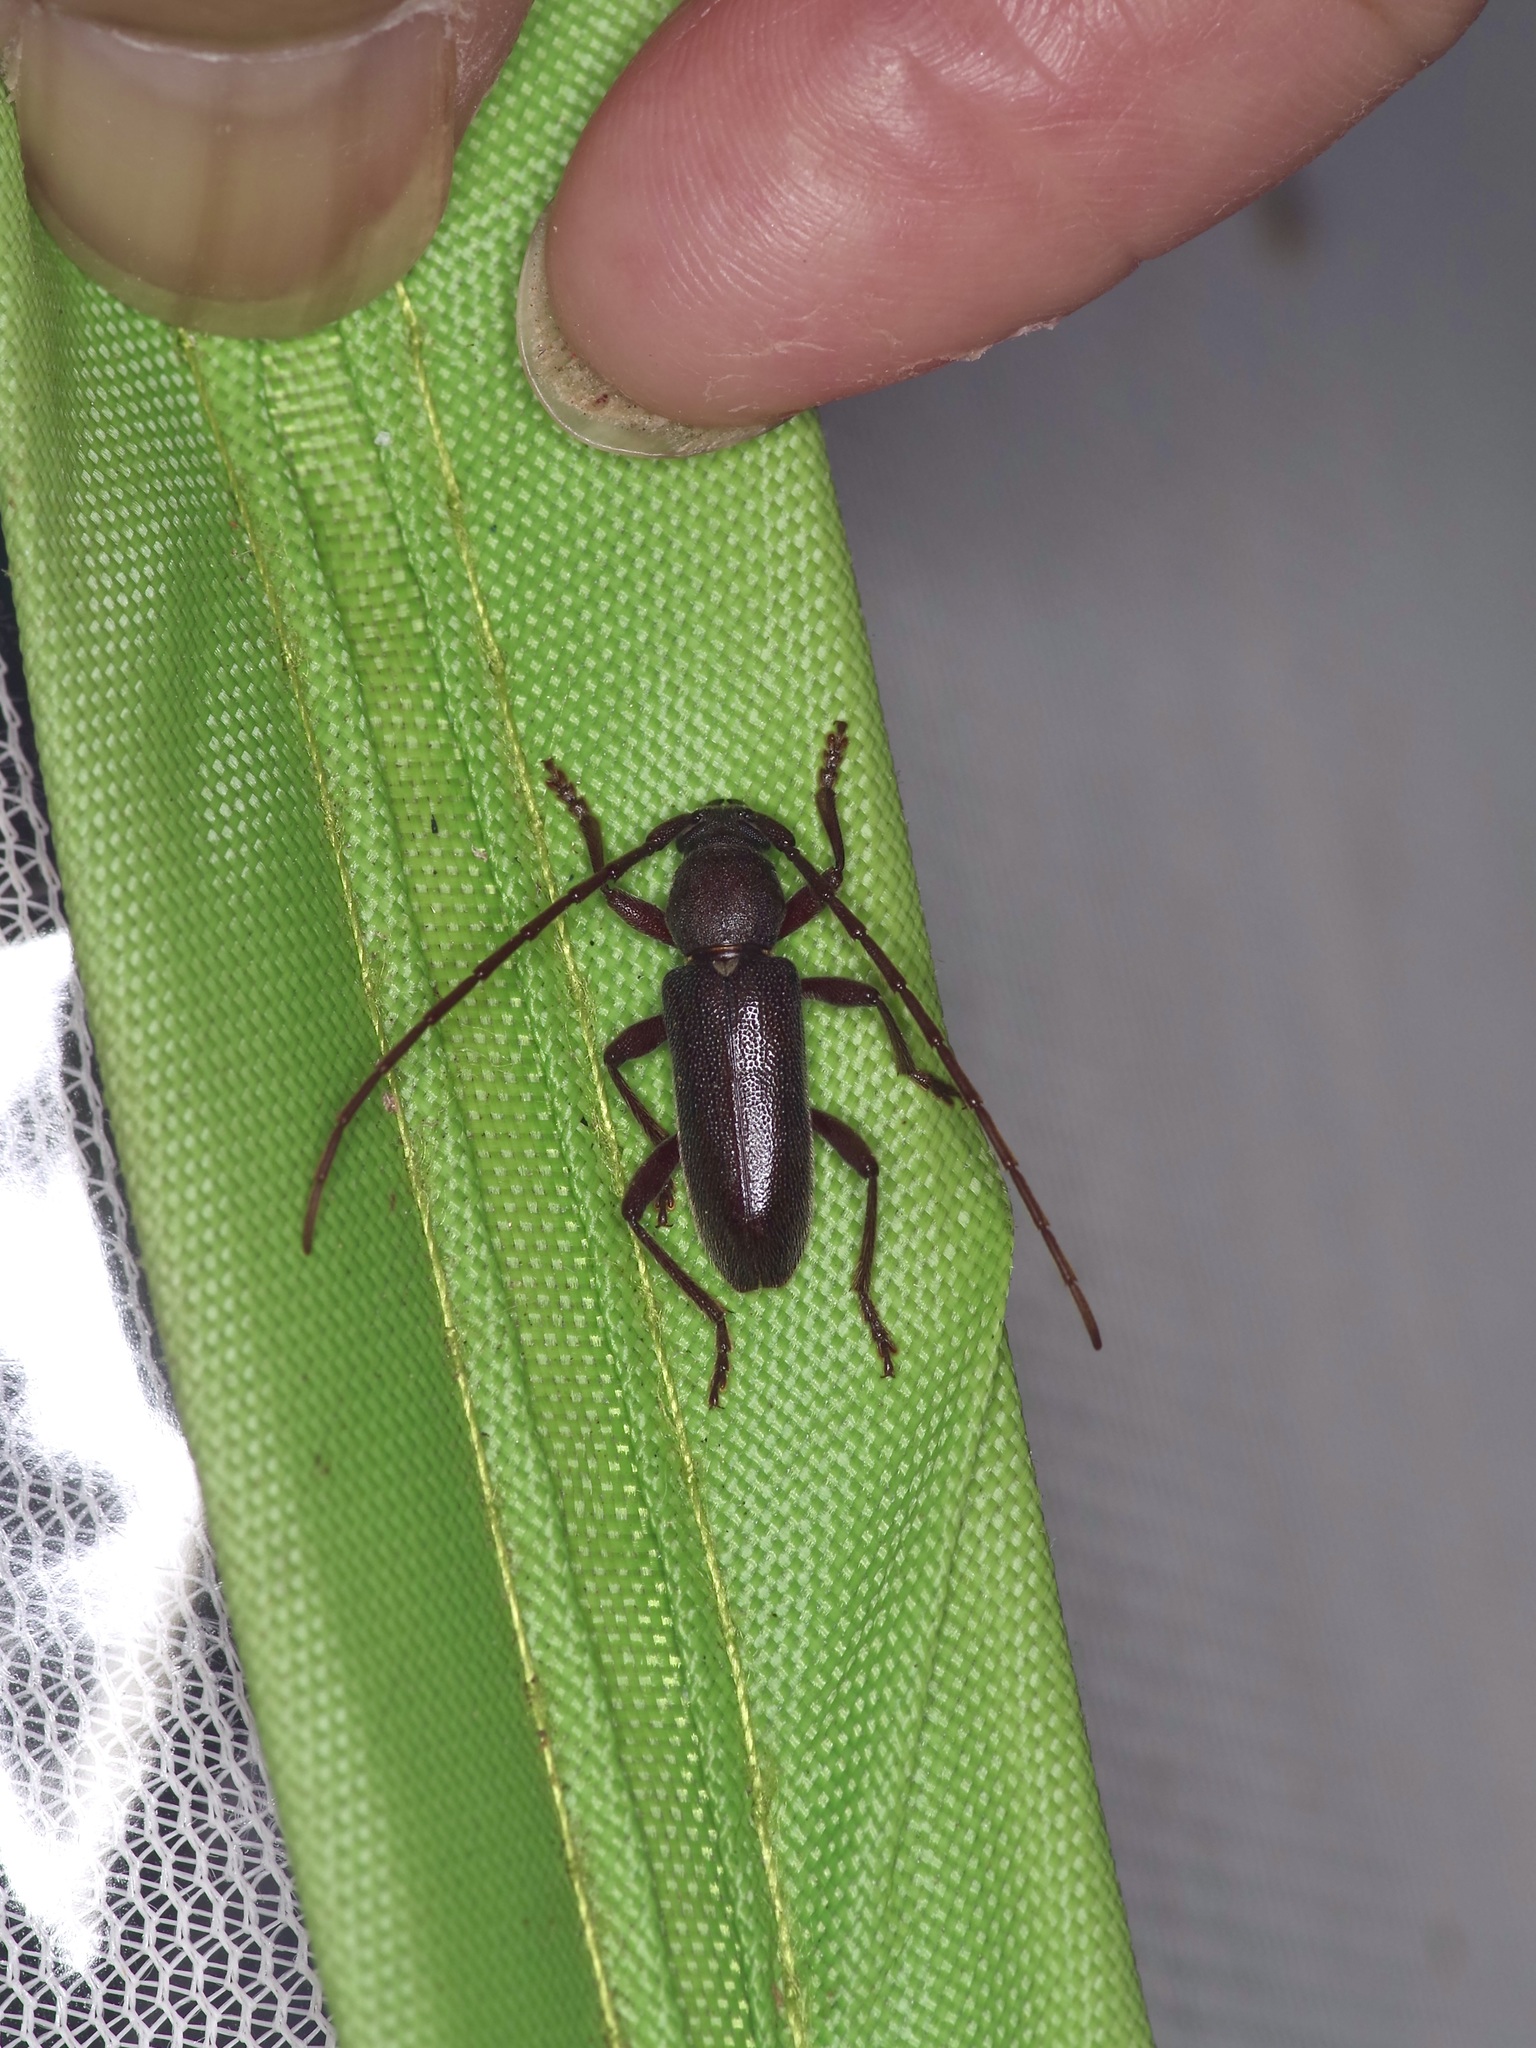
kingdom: Animalia
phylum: Arthropoda
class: Insecta
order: Coleoptera
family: Cerambycidae
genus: Anelaphus
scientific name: Anelaphus moestus
